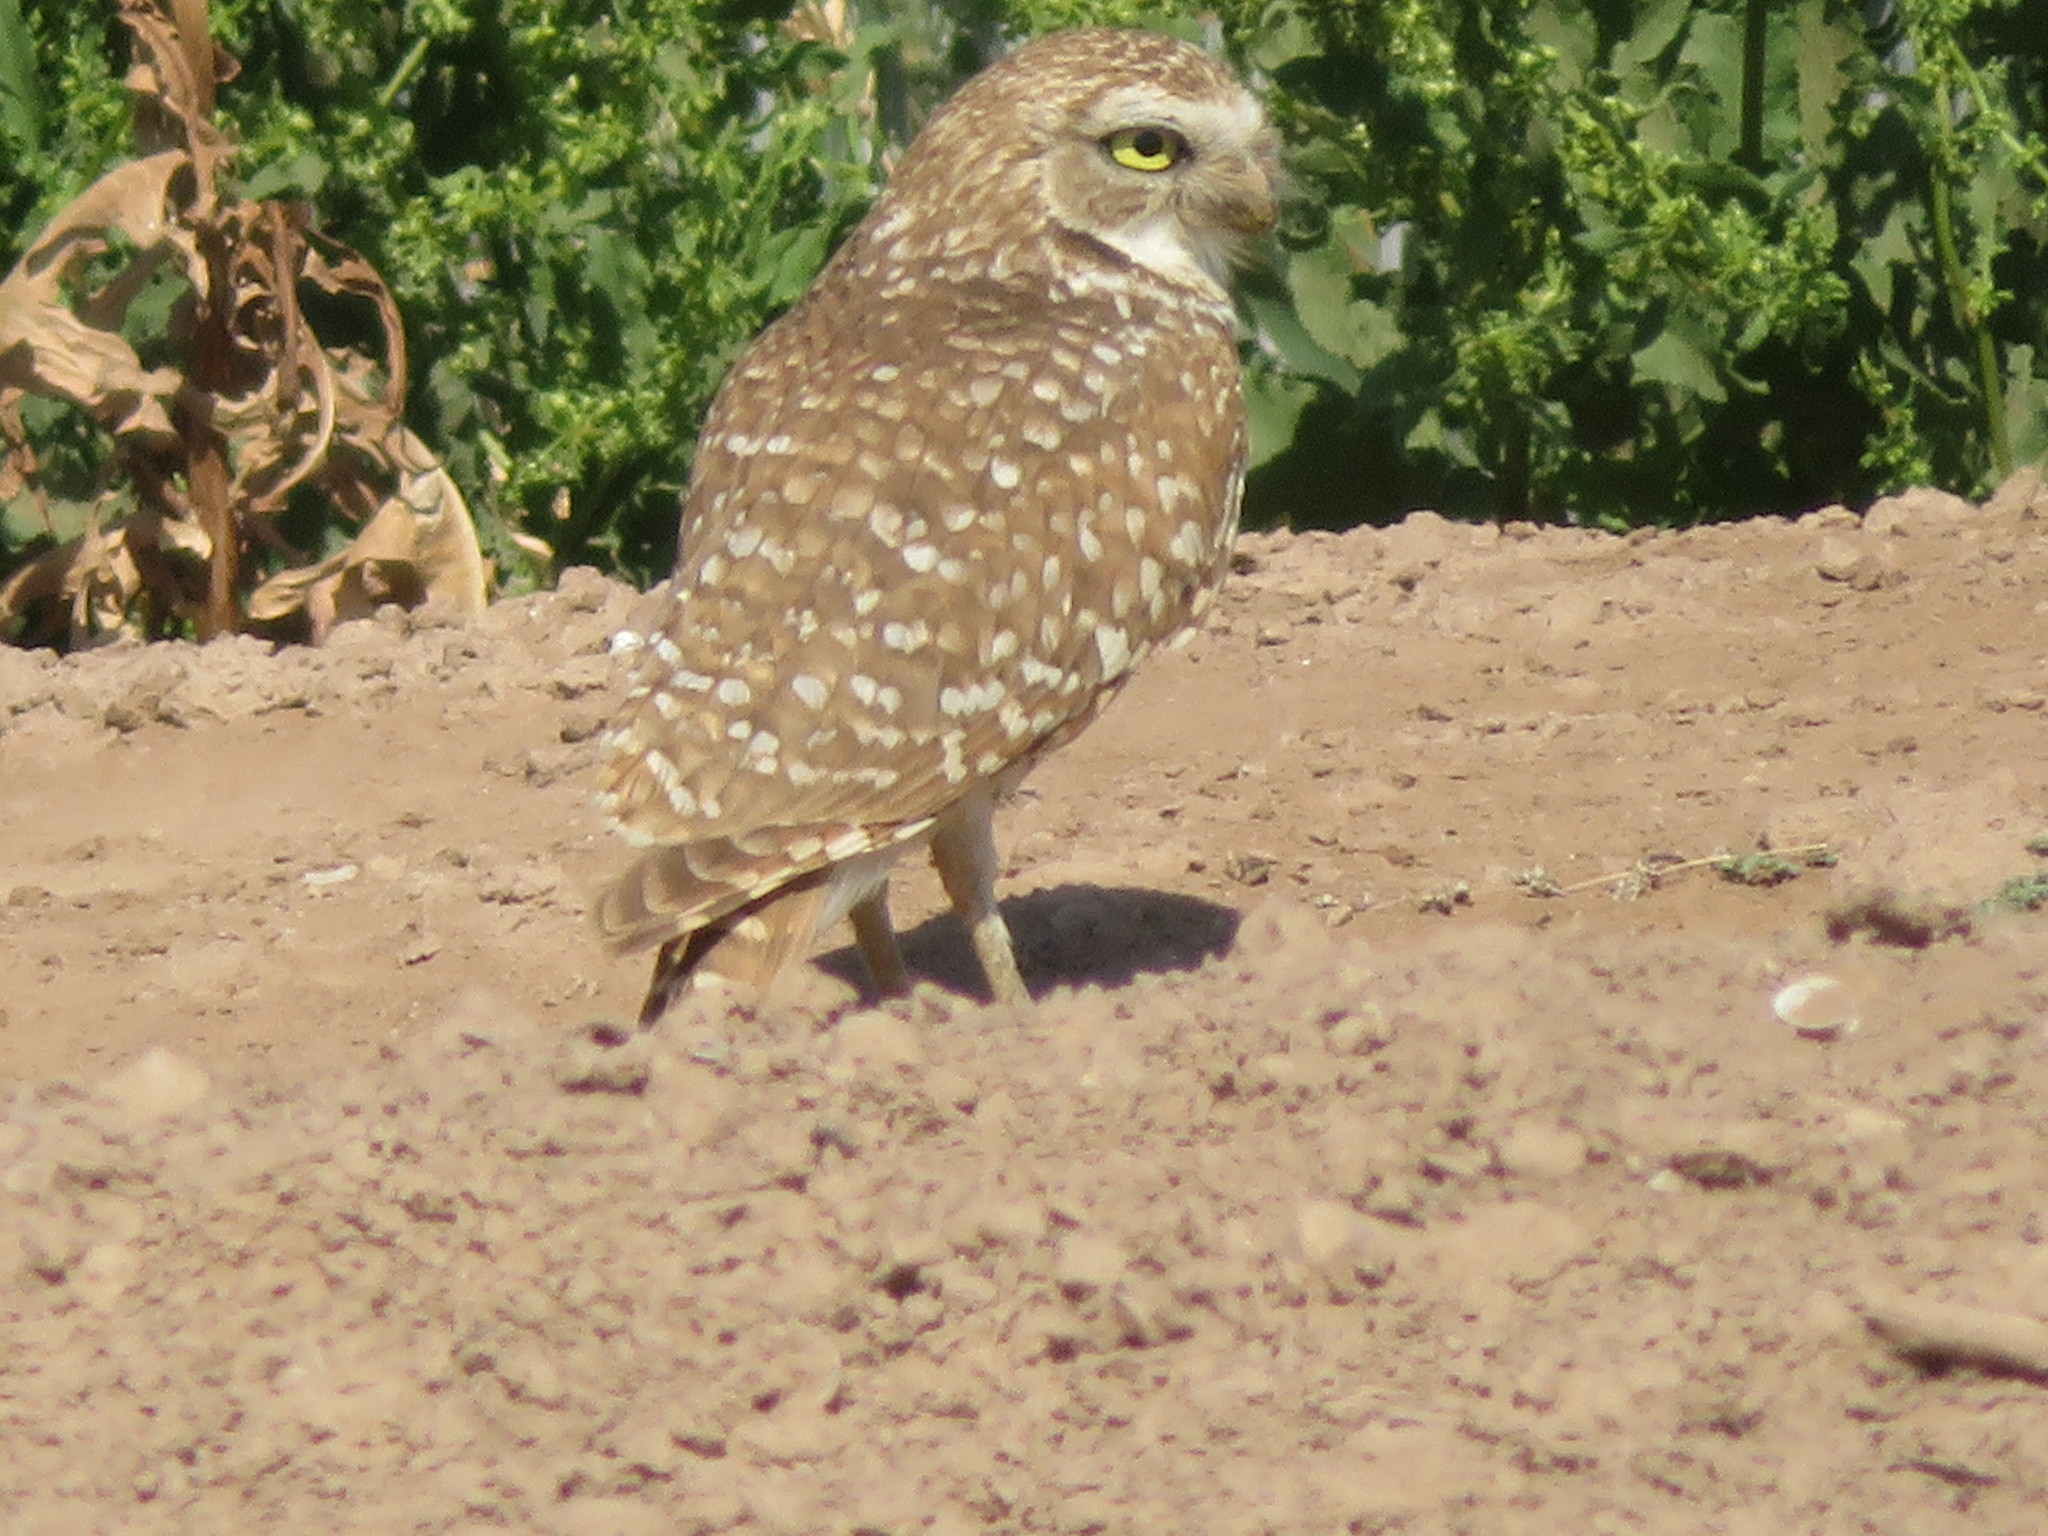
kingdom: Animalia
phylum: Chordata
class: Aves
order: Strigiformes
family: Strigidae
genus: Athene
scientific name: Athene cunicularia
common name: Burrowing owl
